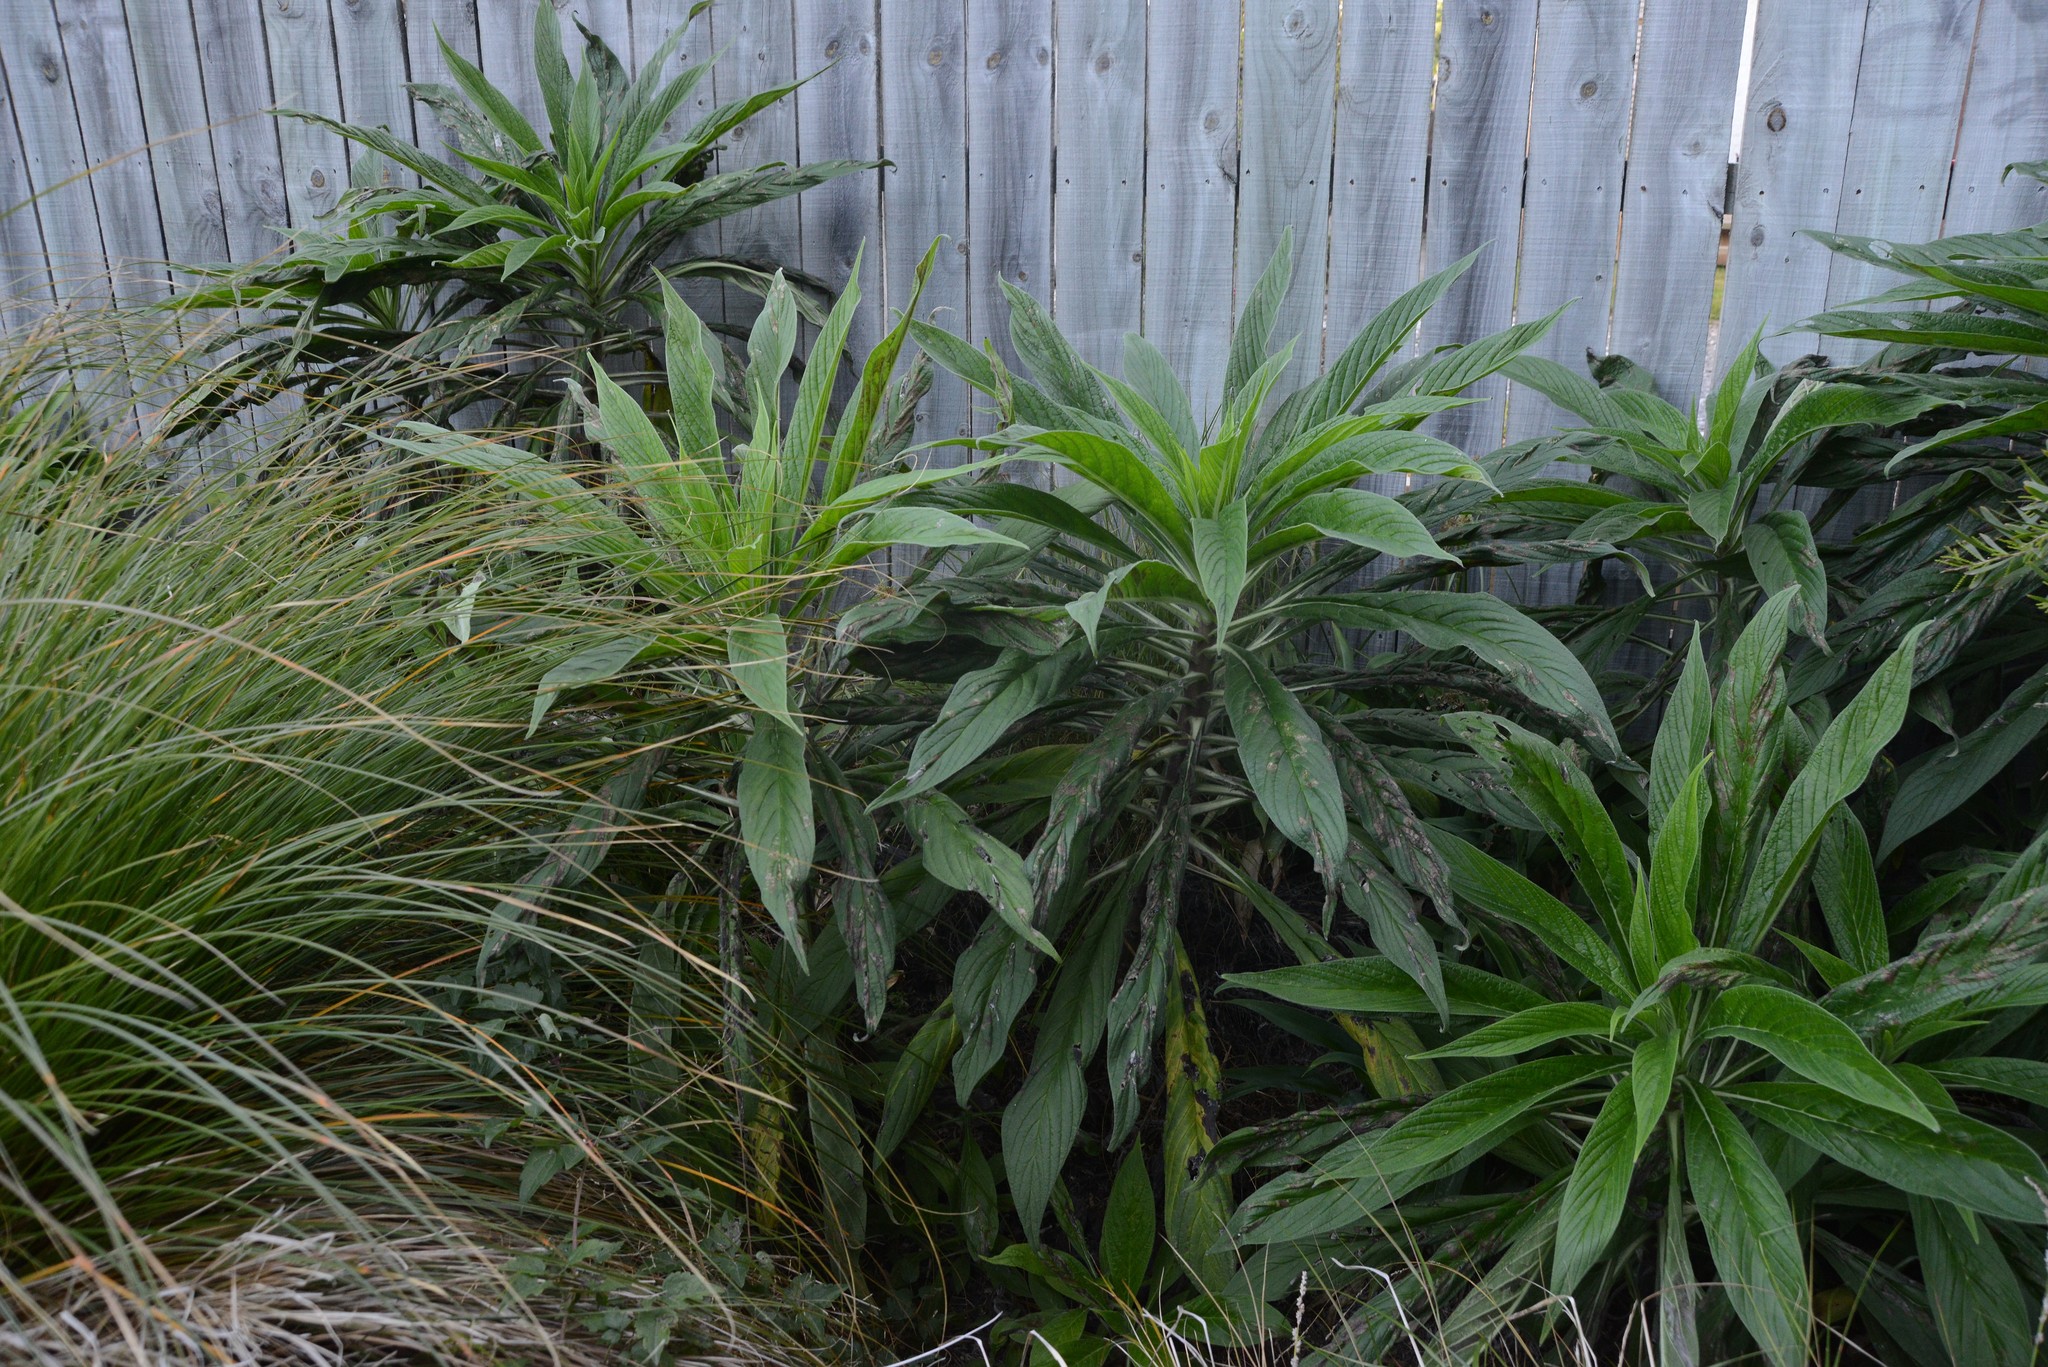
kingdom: Plantae
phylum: Tracheophyta
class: Magnoliopsida
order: Boraginales
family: Boraginaceae
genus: Echium
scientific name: Echium pininana
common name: Giant viper's-bugloss
